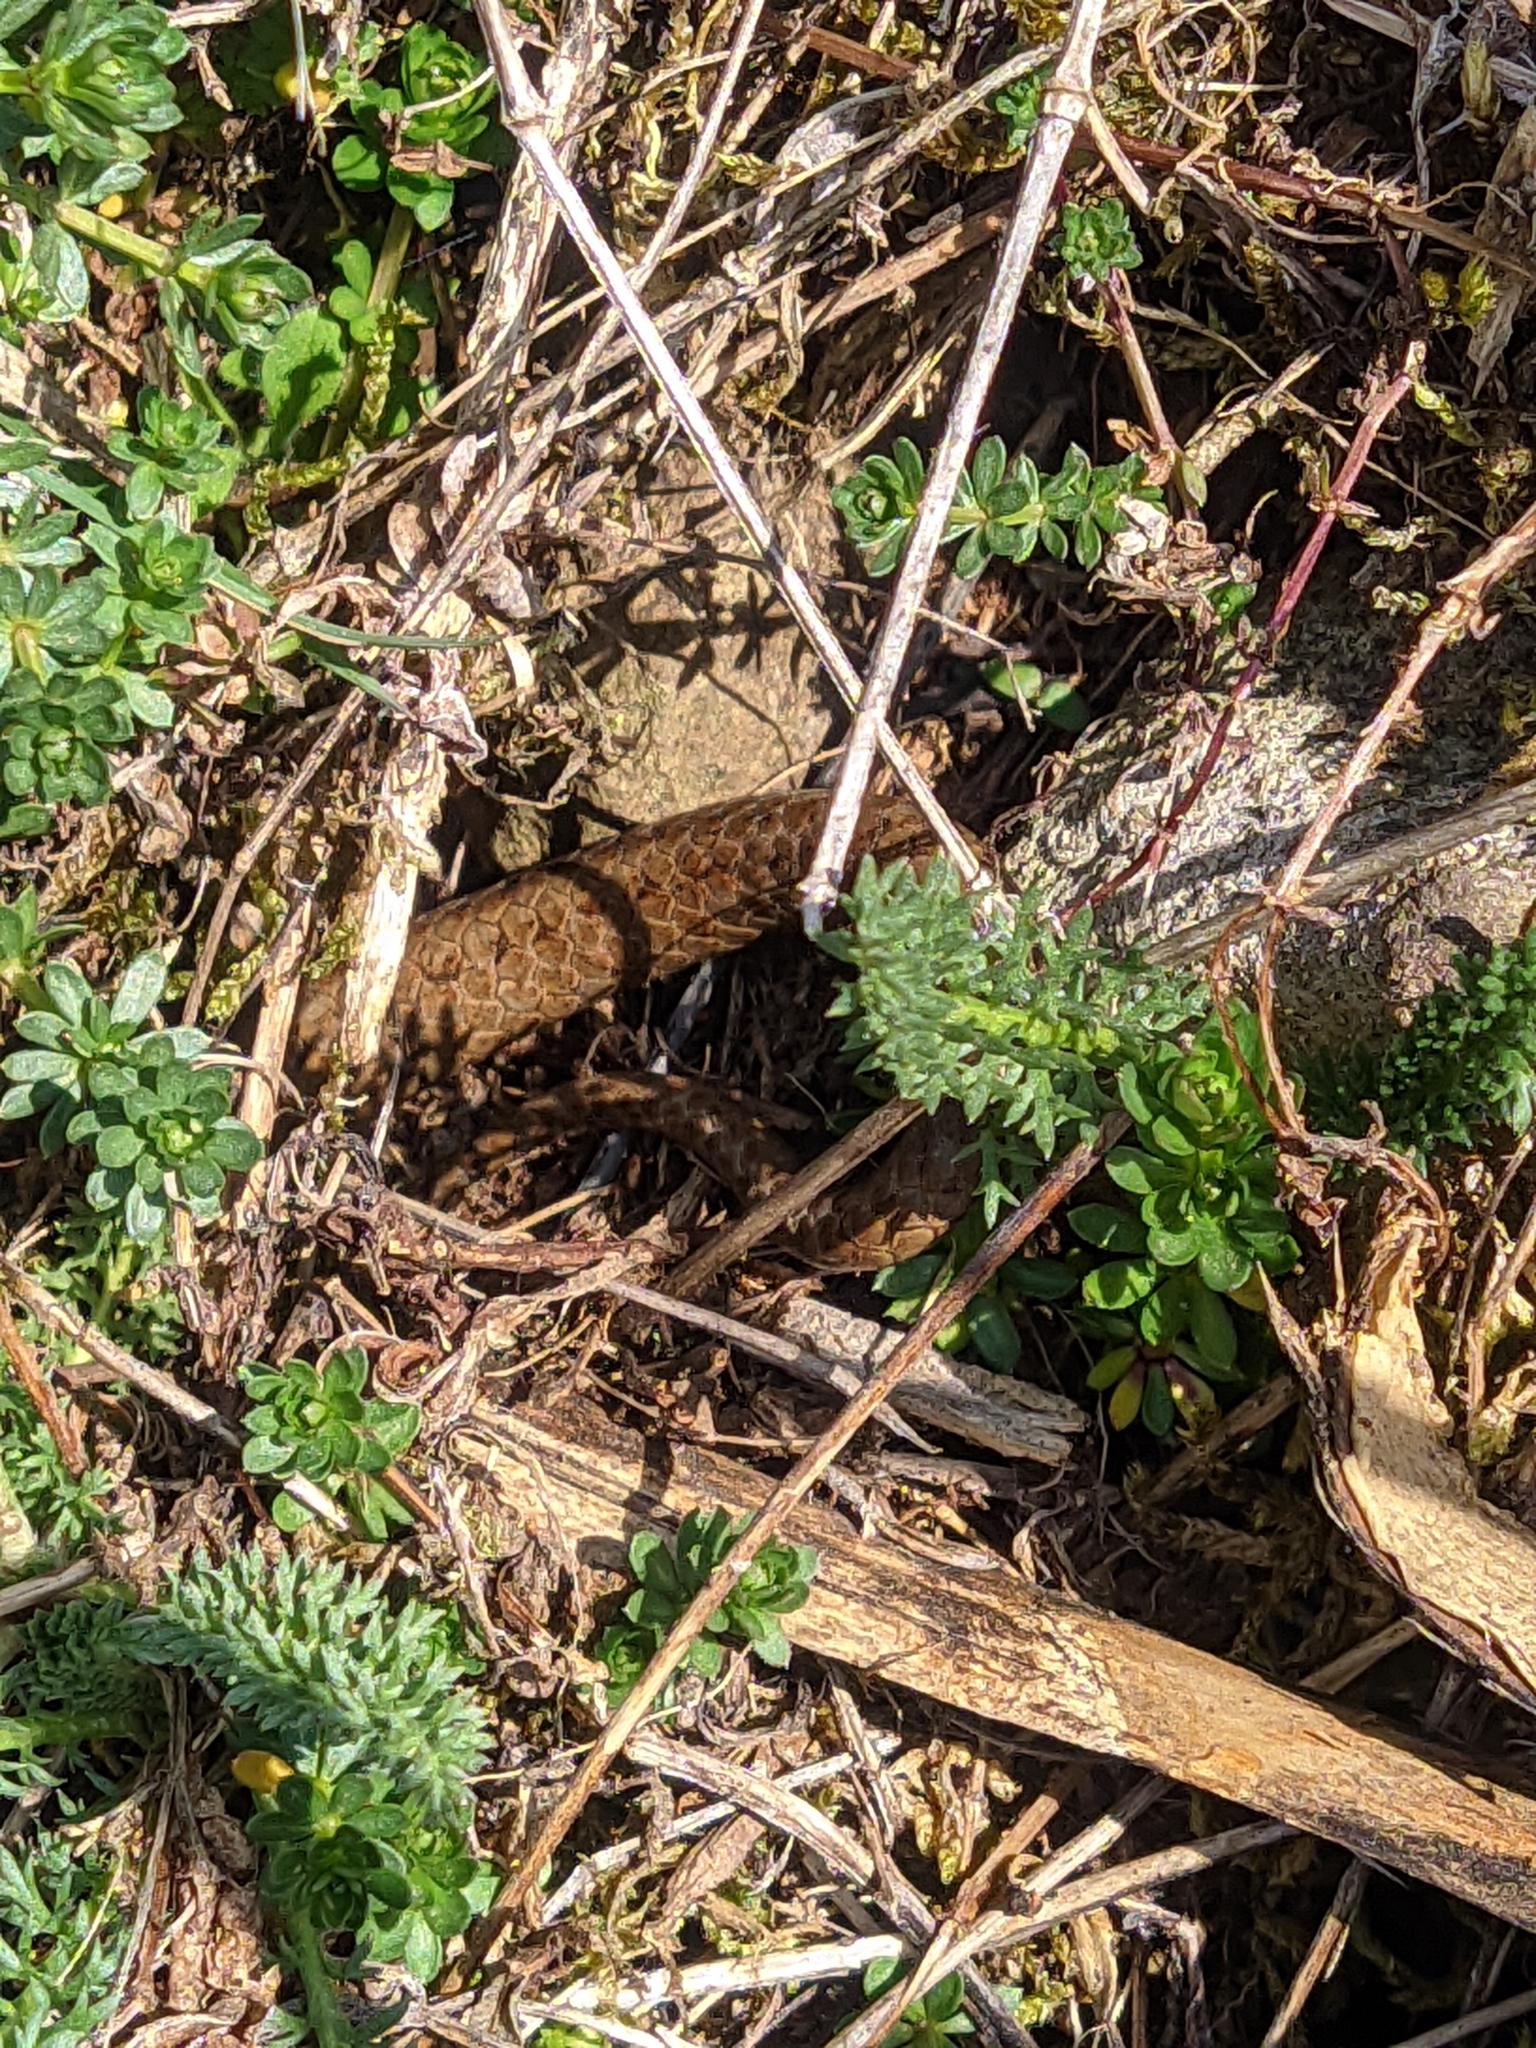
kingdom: Animalia
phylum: Chordata
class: Squamata
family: Colubridae
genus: Coronella
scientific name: Coronella austriaca
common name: Smooth snake
